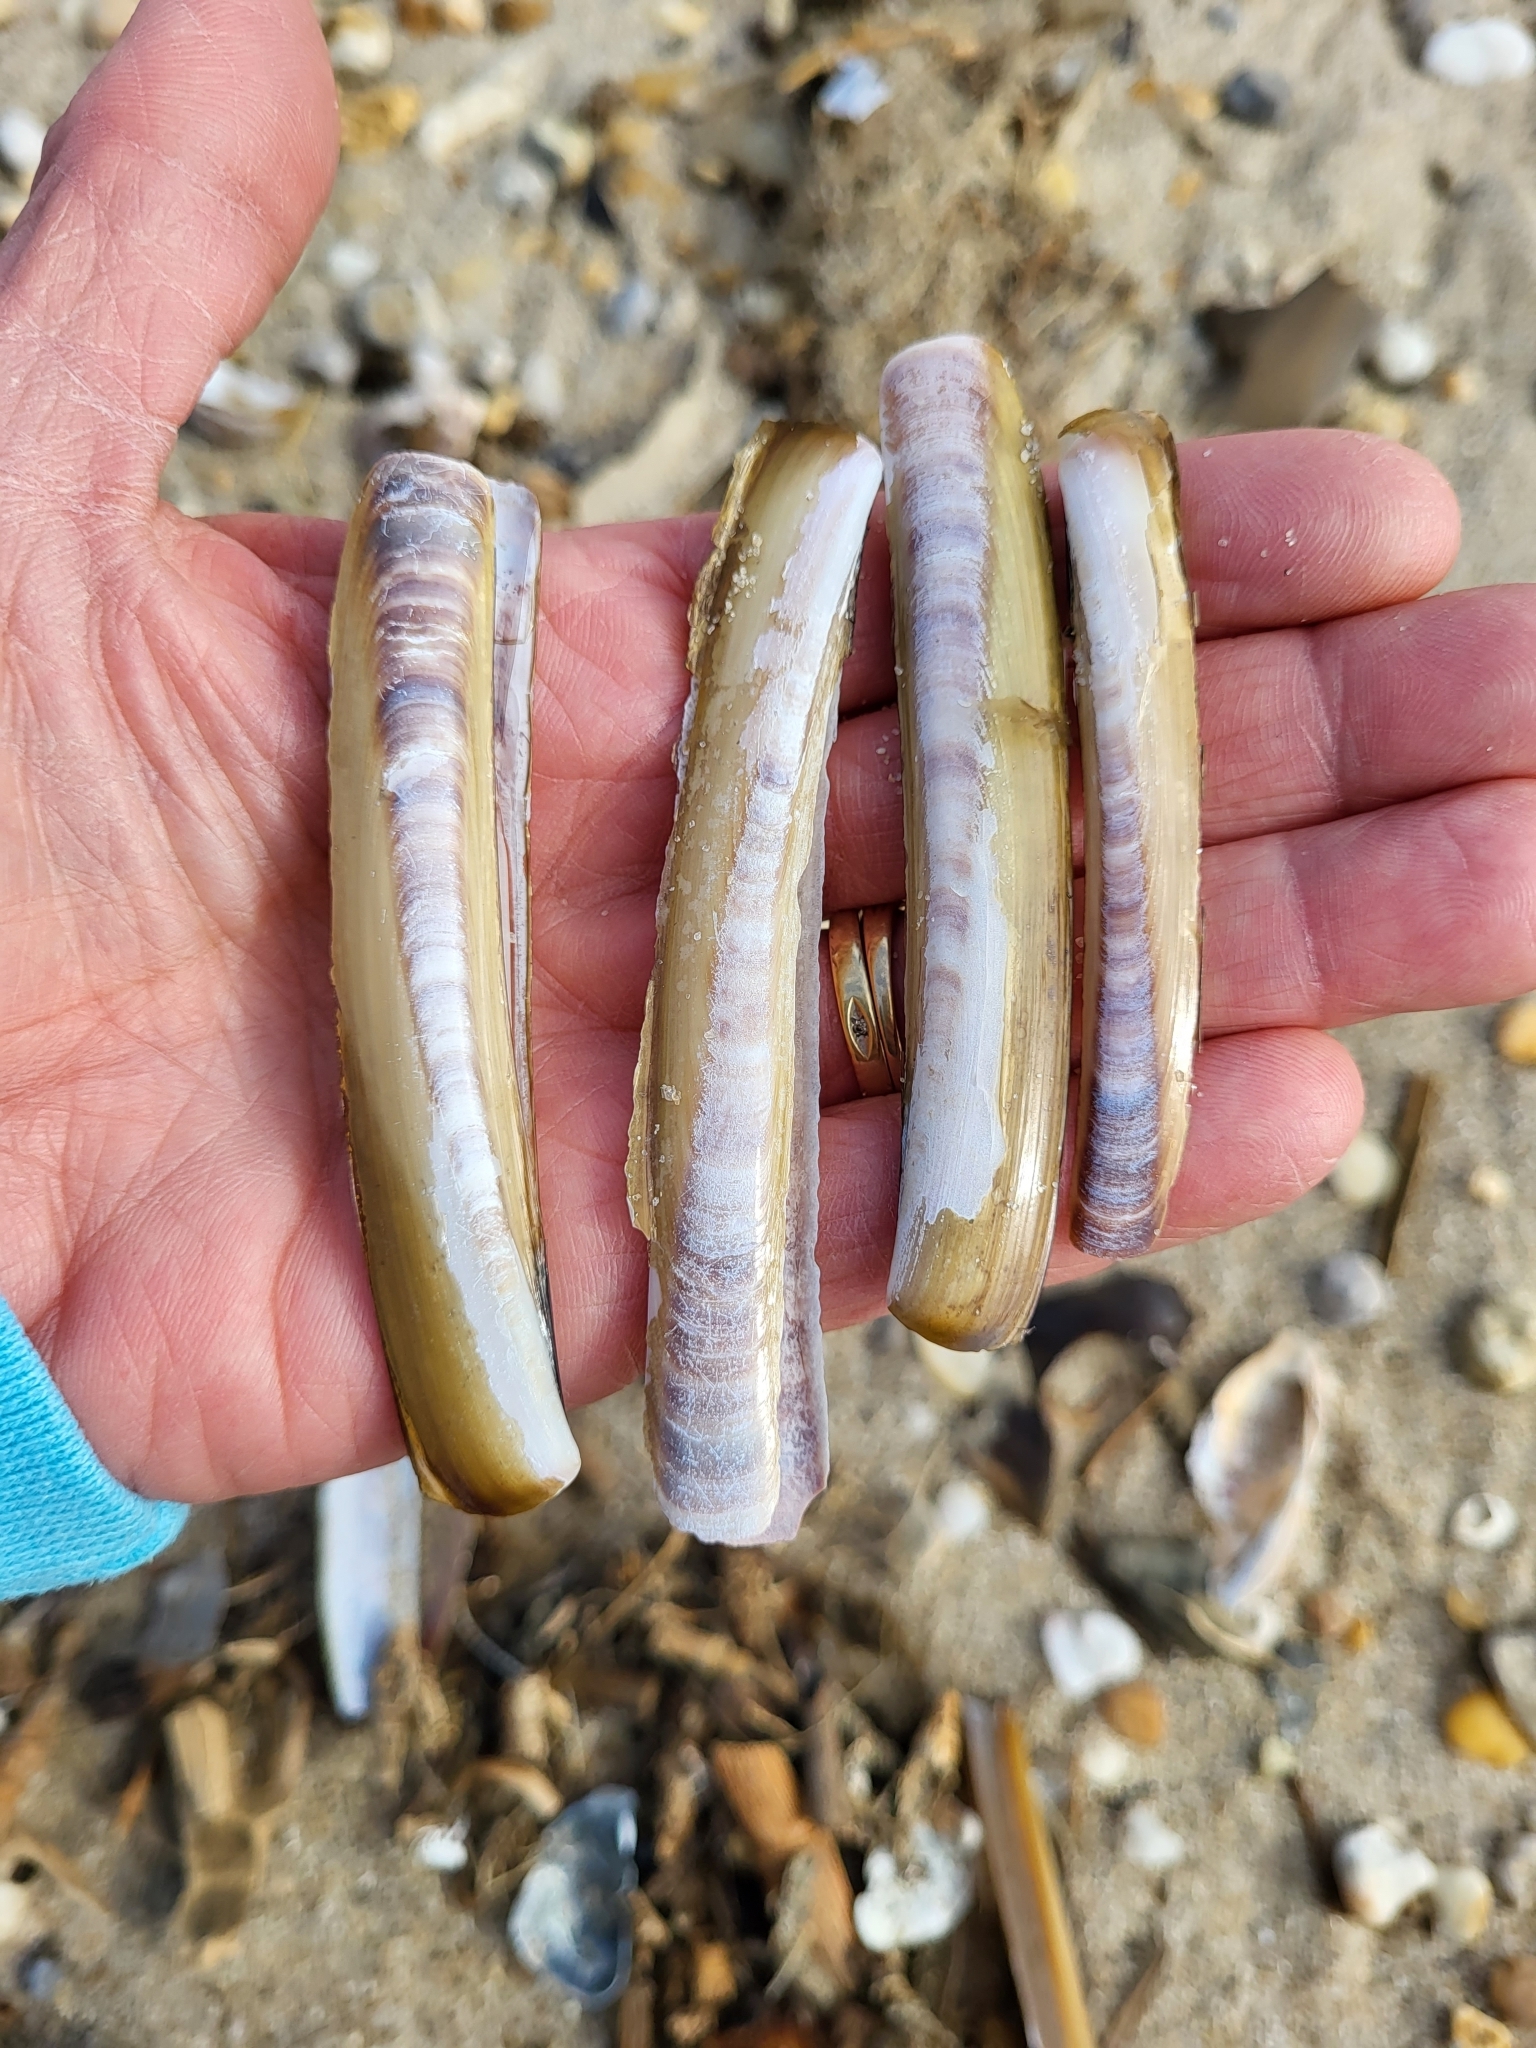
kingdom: Animalia
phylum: Mollusca
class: Bivalvia
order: Adapedonta
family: Pharidae
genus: Ensis
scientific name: Ensis leei
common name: American jack knife clam
